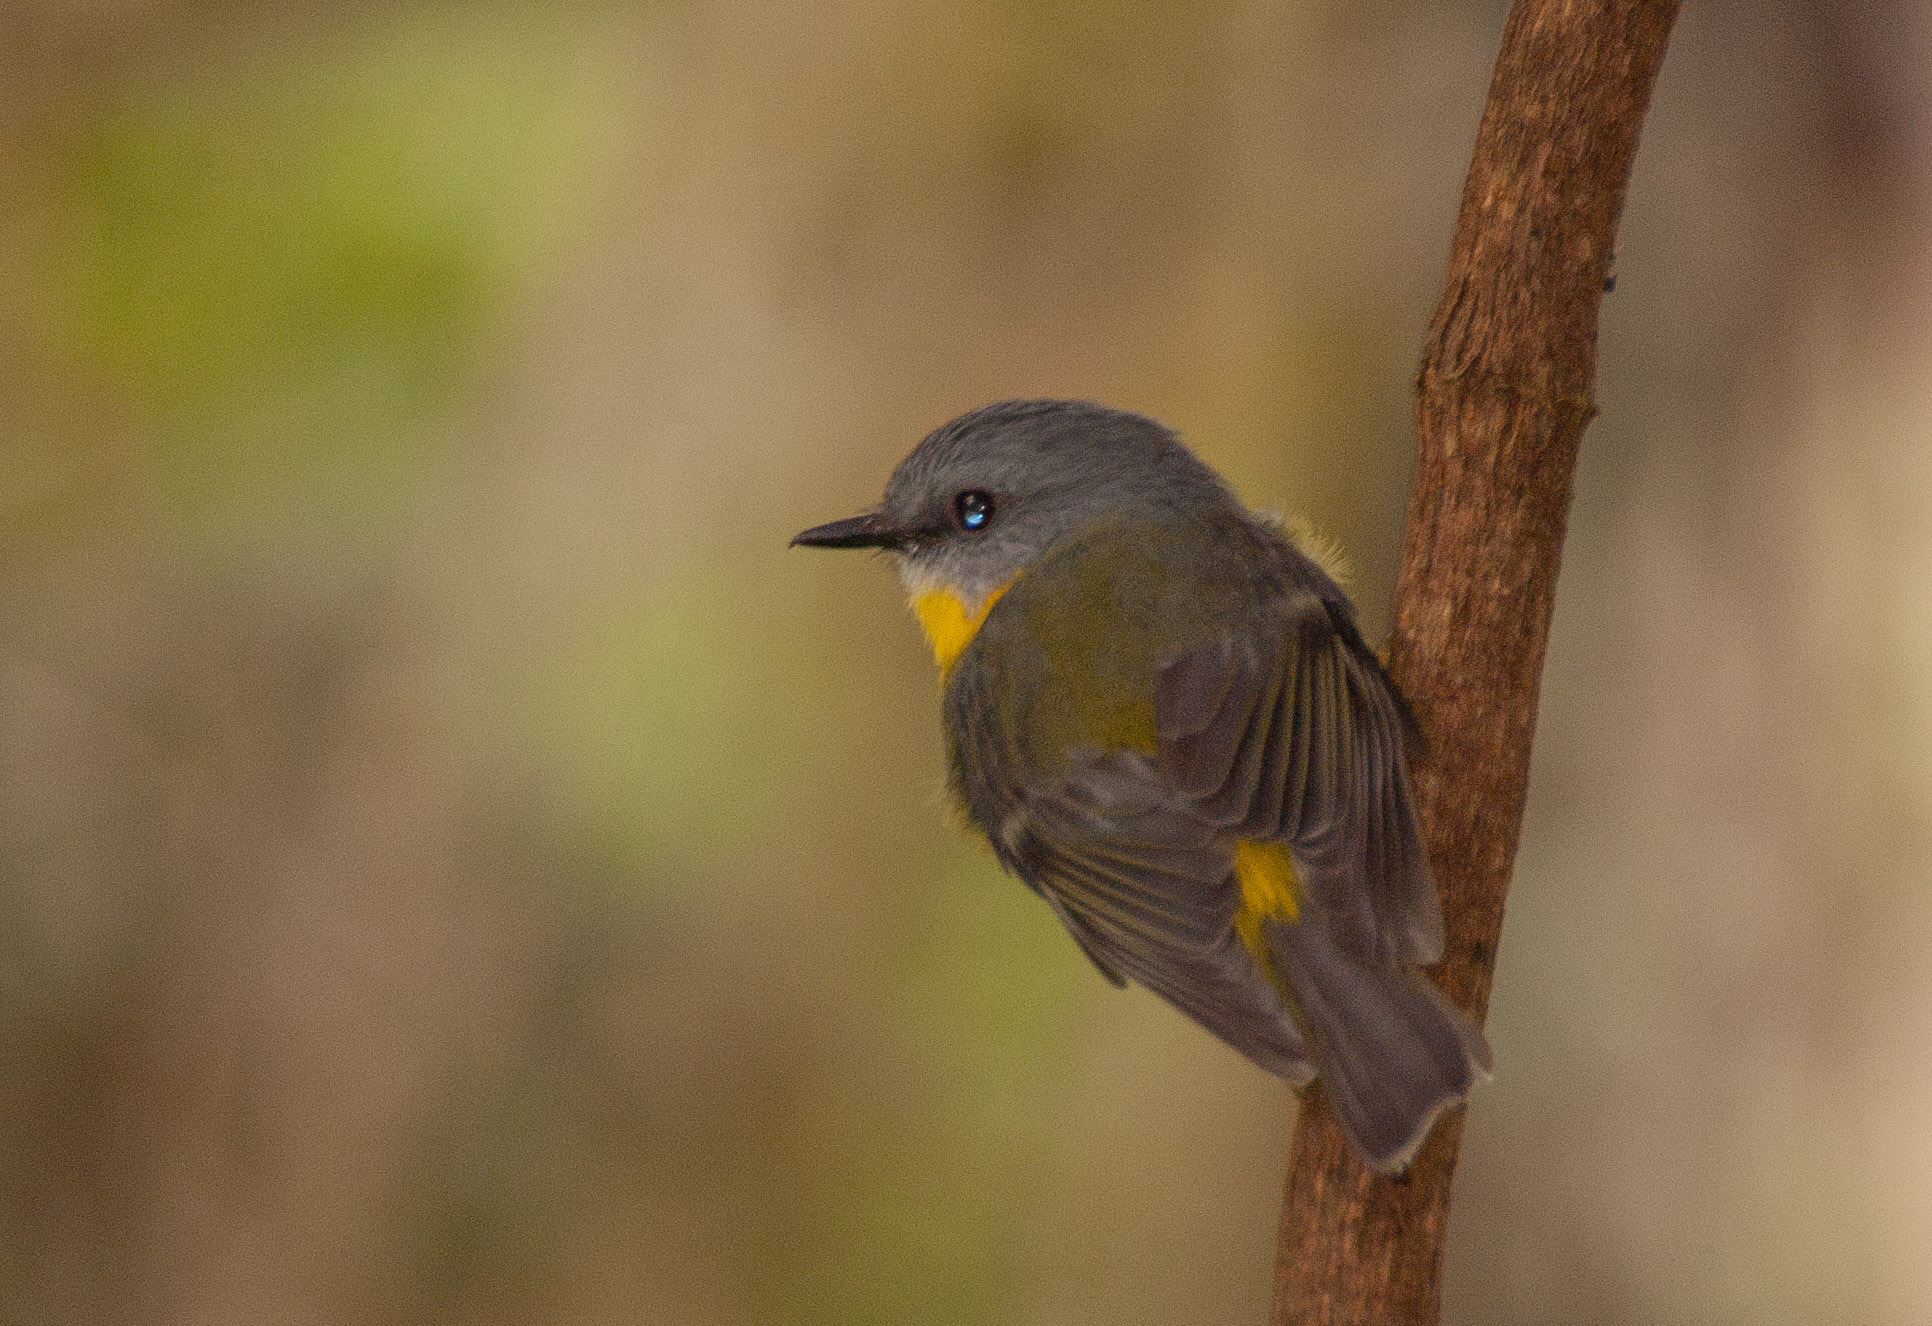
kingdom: Animalia
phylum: Chordata
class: Aves
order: Passeriformes
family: Petroicidae
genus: Eopsaltria
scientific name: Eopsaltria australis
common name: Eastern yellow robin
